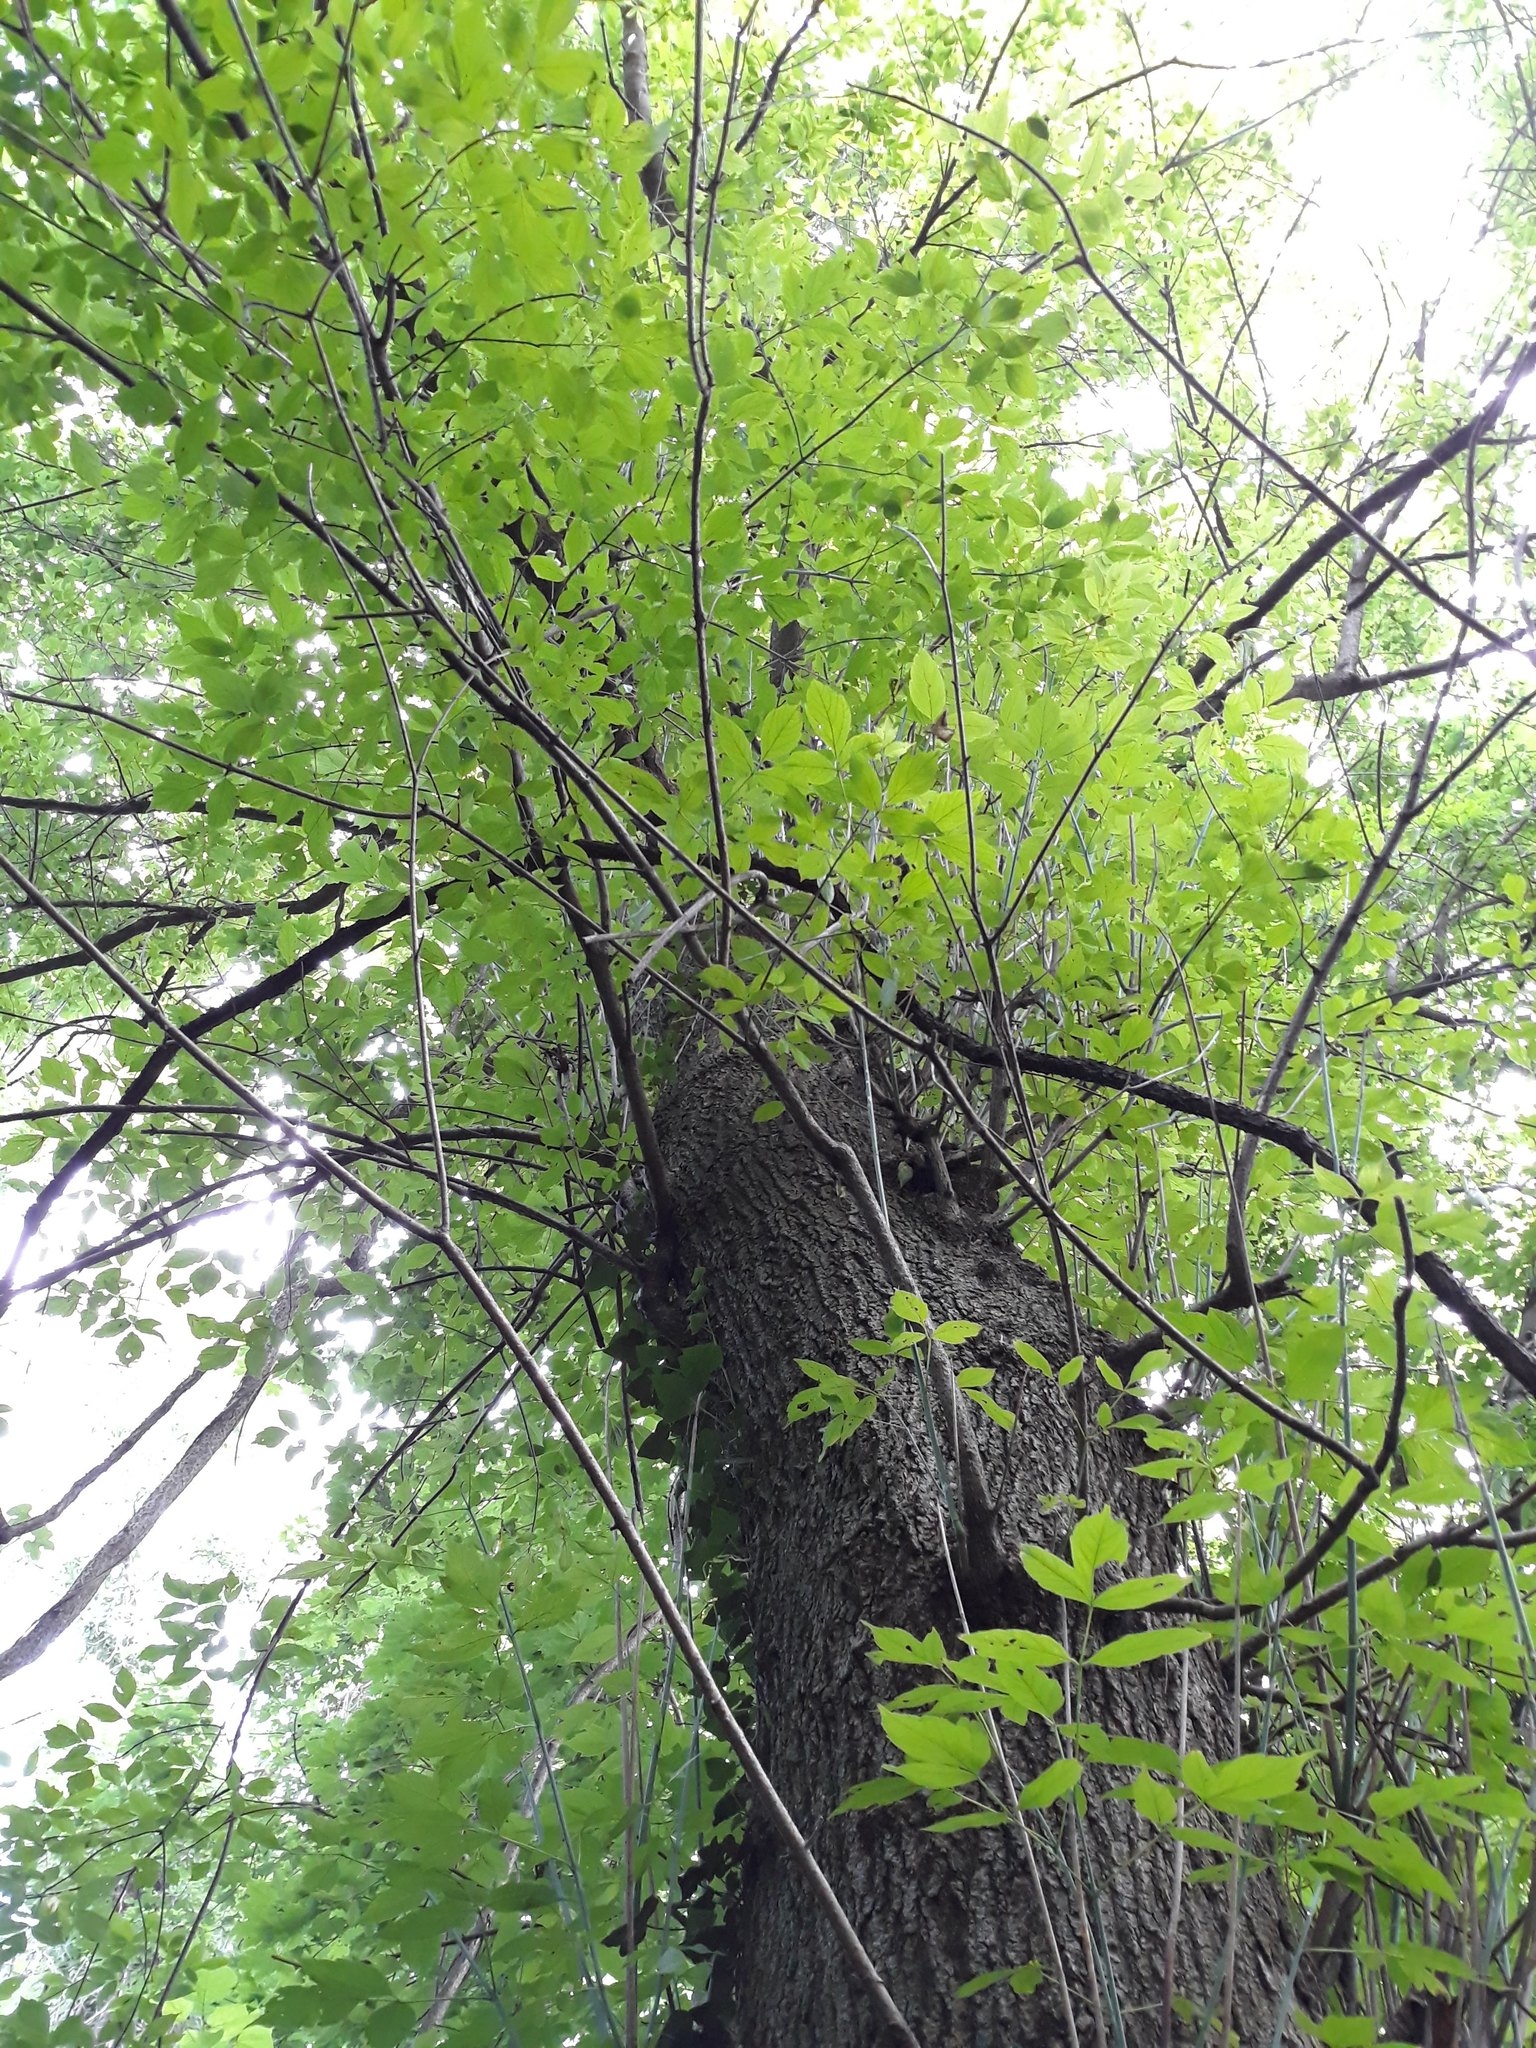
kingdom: Plantae
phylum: Tracheophyta
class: Magnoliopsida
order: Sapindales
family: Sapindaceae
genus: Acer
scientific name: Acer negundo
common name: Ashleaf maple
